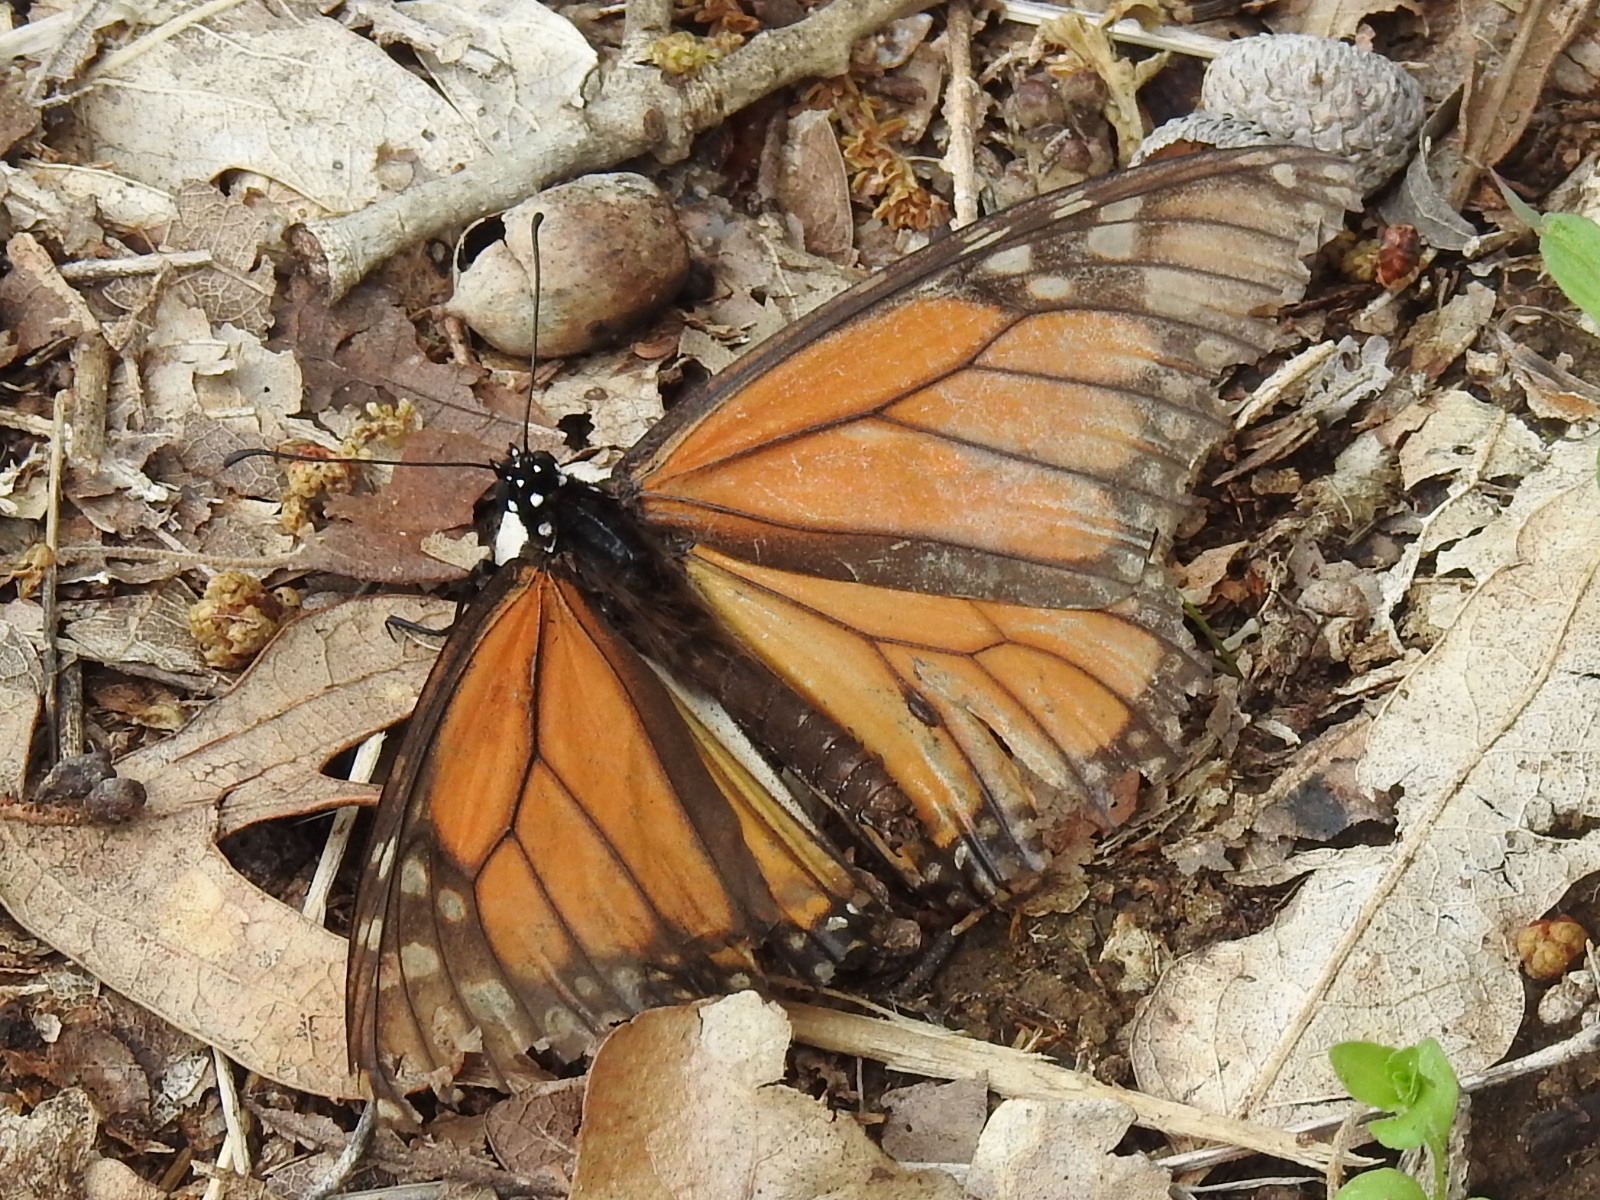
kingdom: Animalia
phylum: Arthropoda
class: Insecta
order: Lepidoptera
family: Nymphalidae
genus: Danaus
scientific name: Danaus plexippus
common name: Monarch
